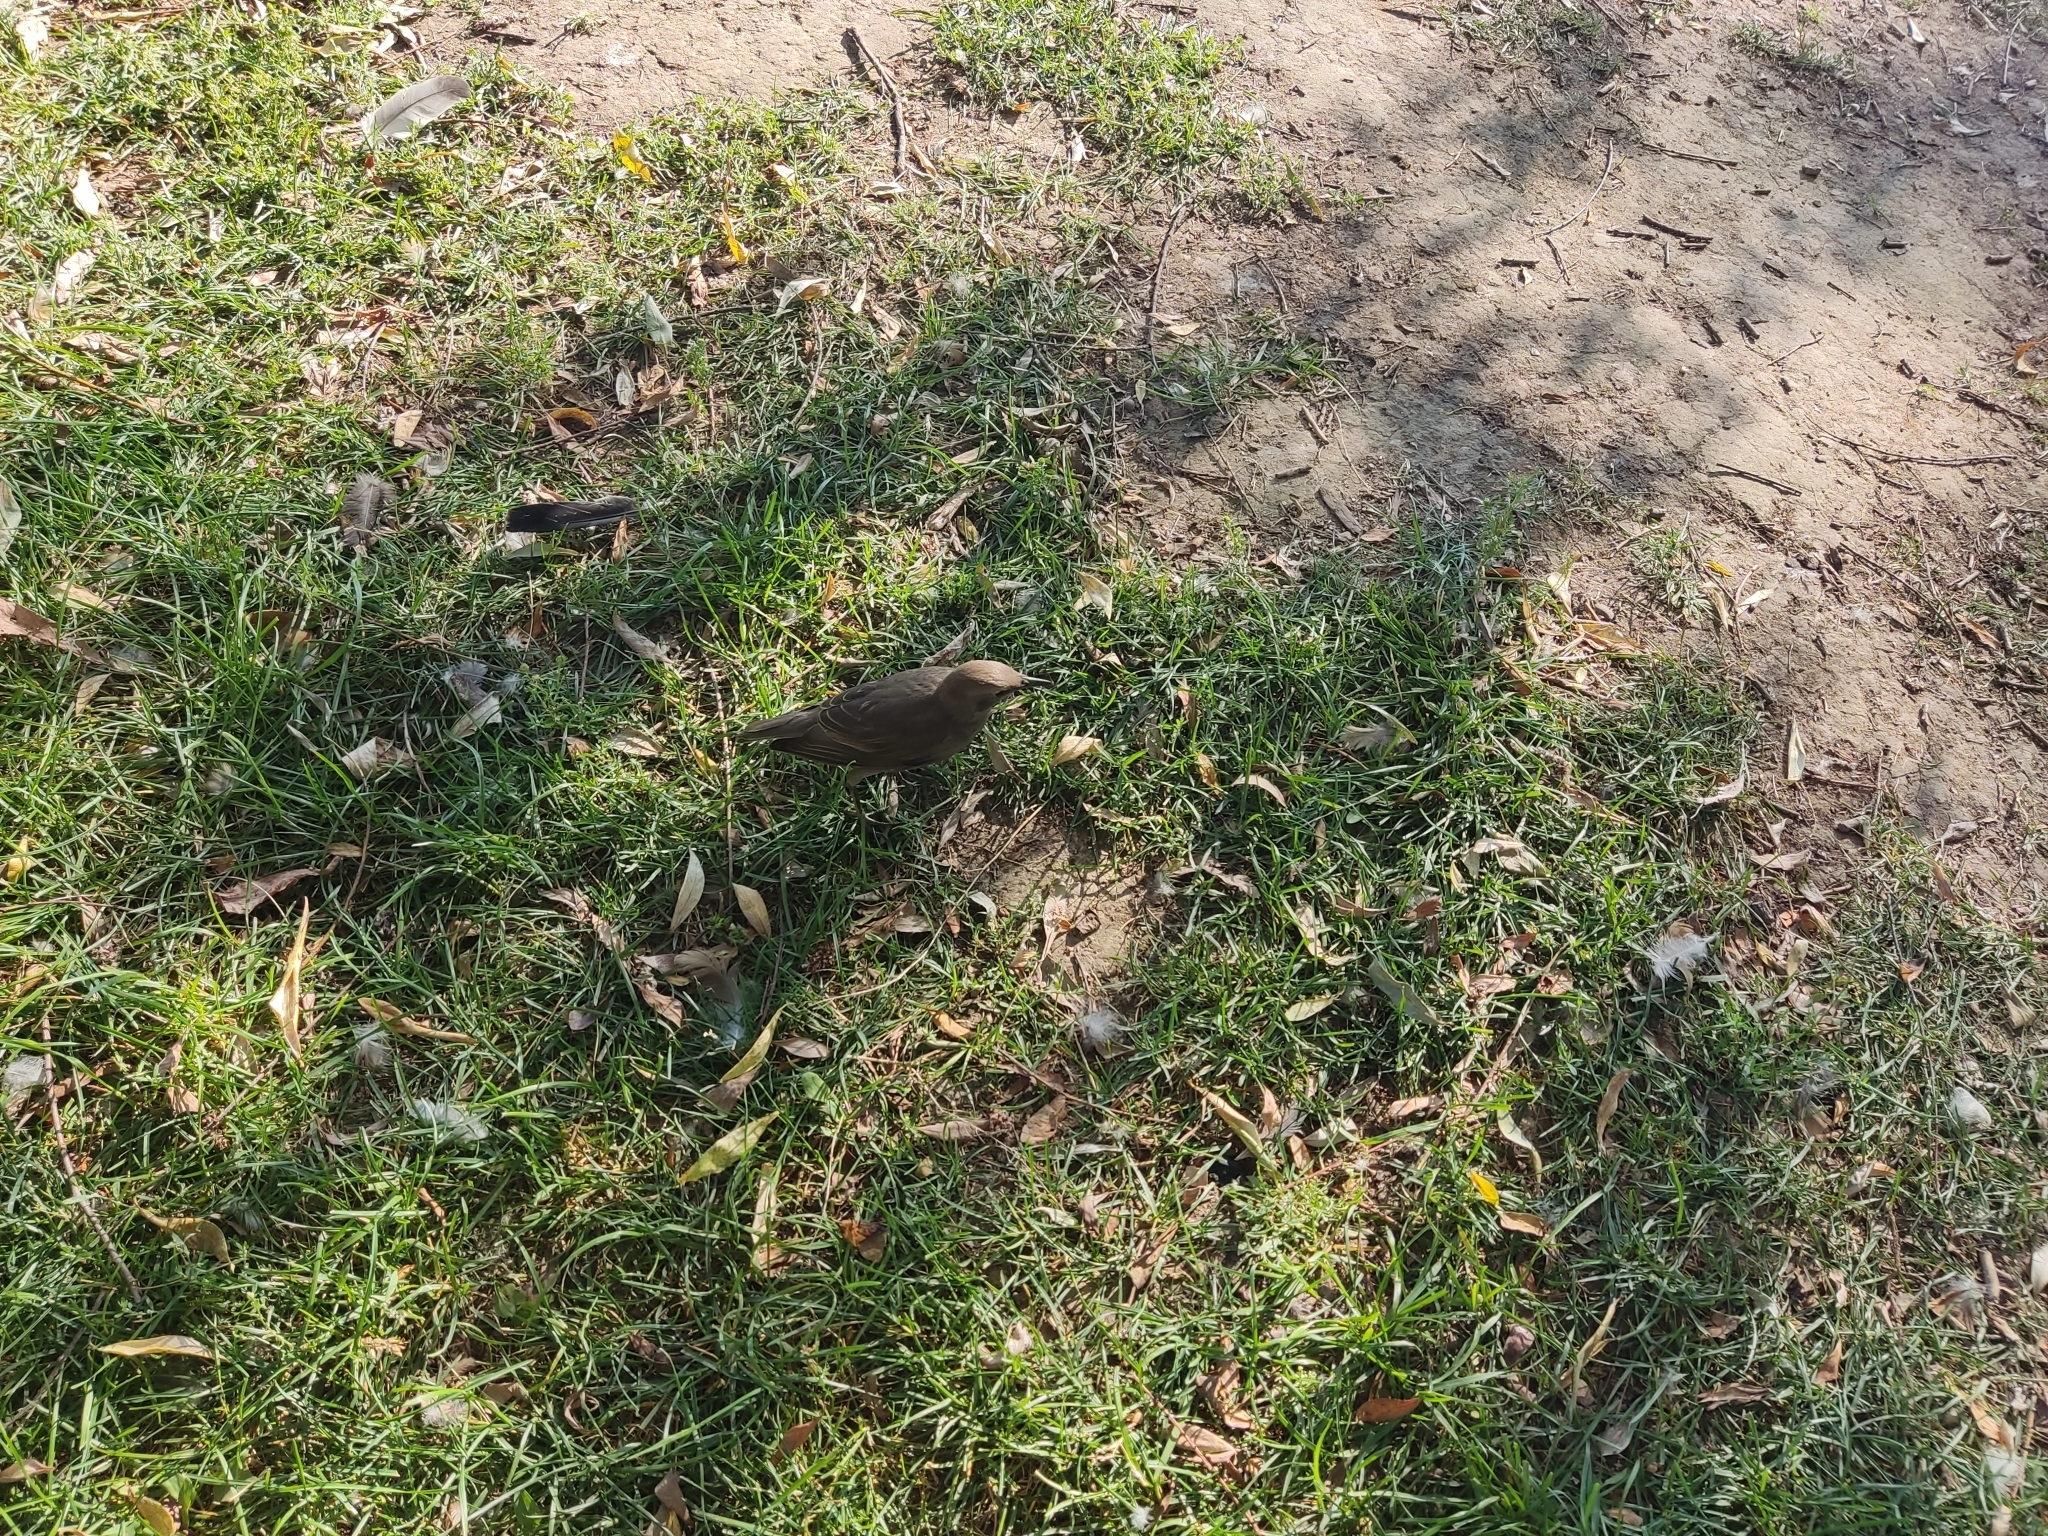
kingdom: Animalia
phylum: Chordata
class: Aves
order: Passeriformes
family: Sturnidae
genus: Sturnus
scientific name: Sturnus vulgaris
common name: Common starling
